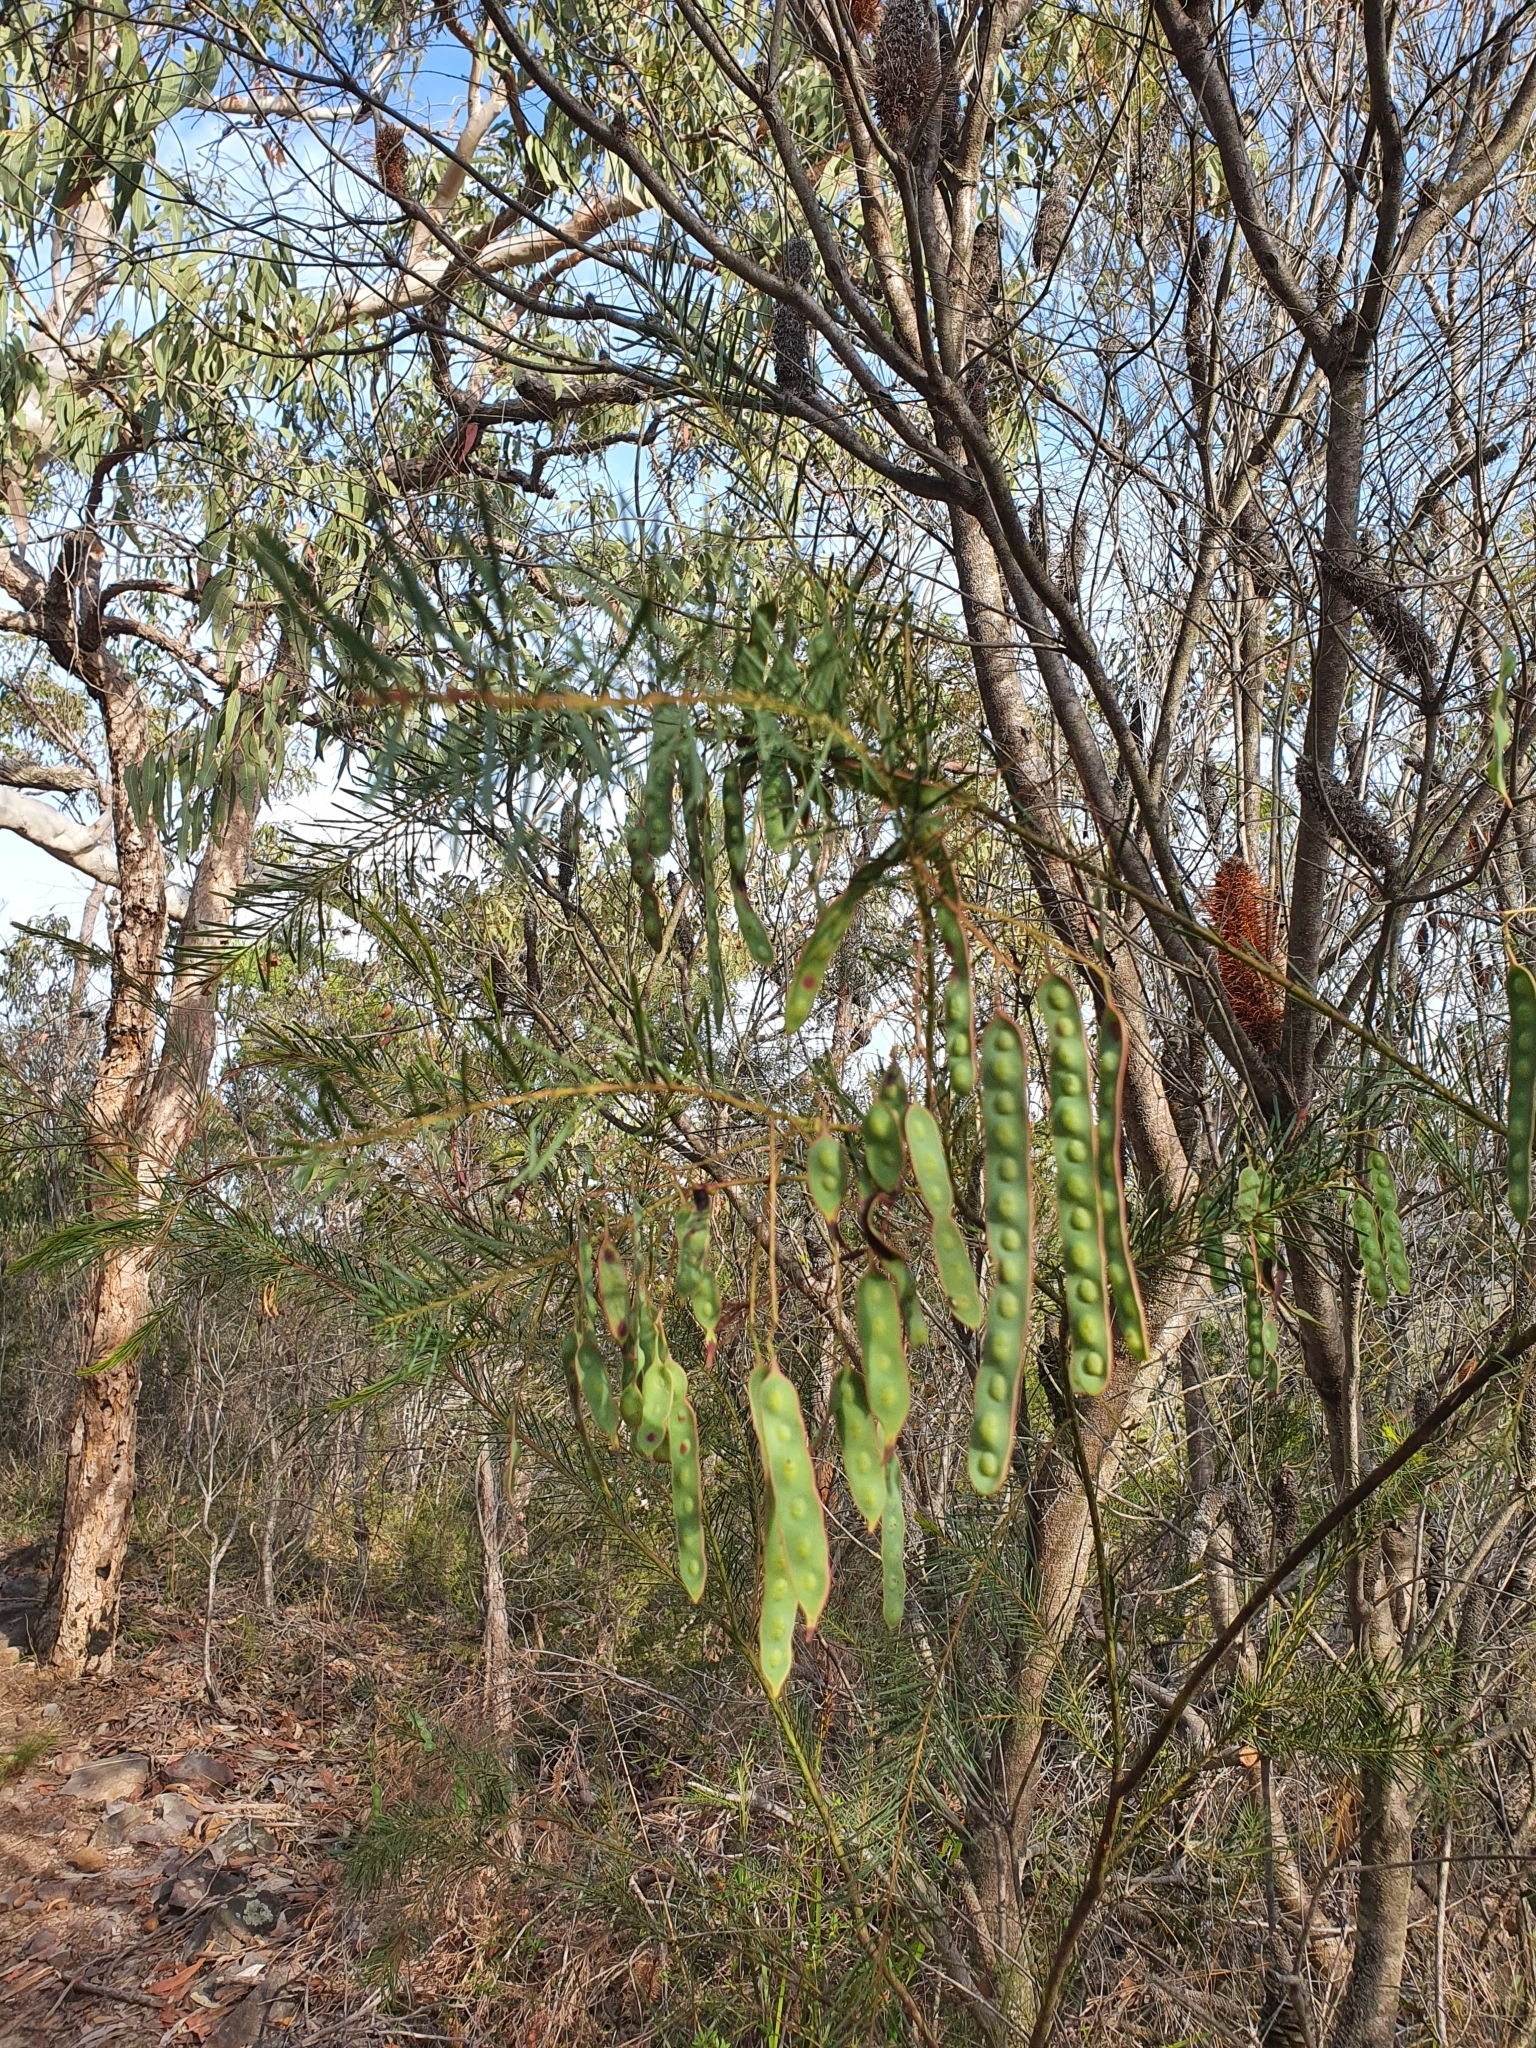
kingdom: Plantae
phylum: Tracheophyta
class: Magnoliopsida
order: Fabales
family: Fabaceae
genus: Acacia
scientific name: Acacia linifolia
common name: White wattle
